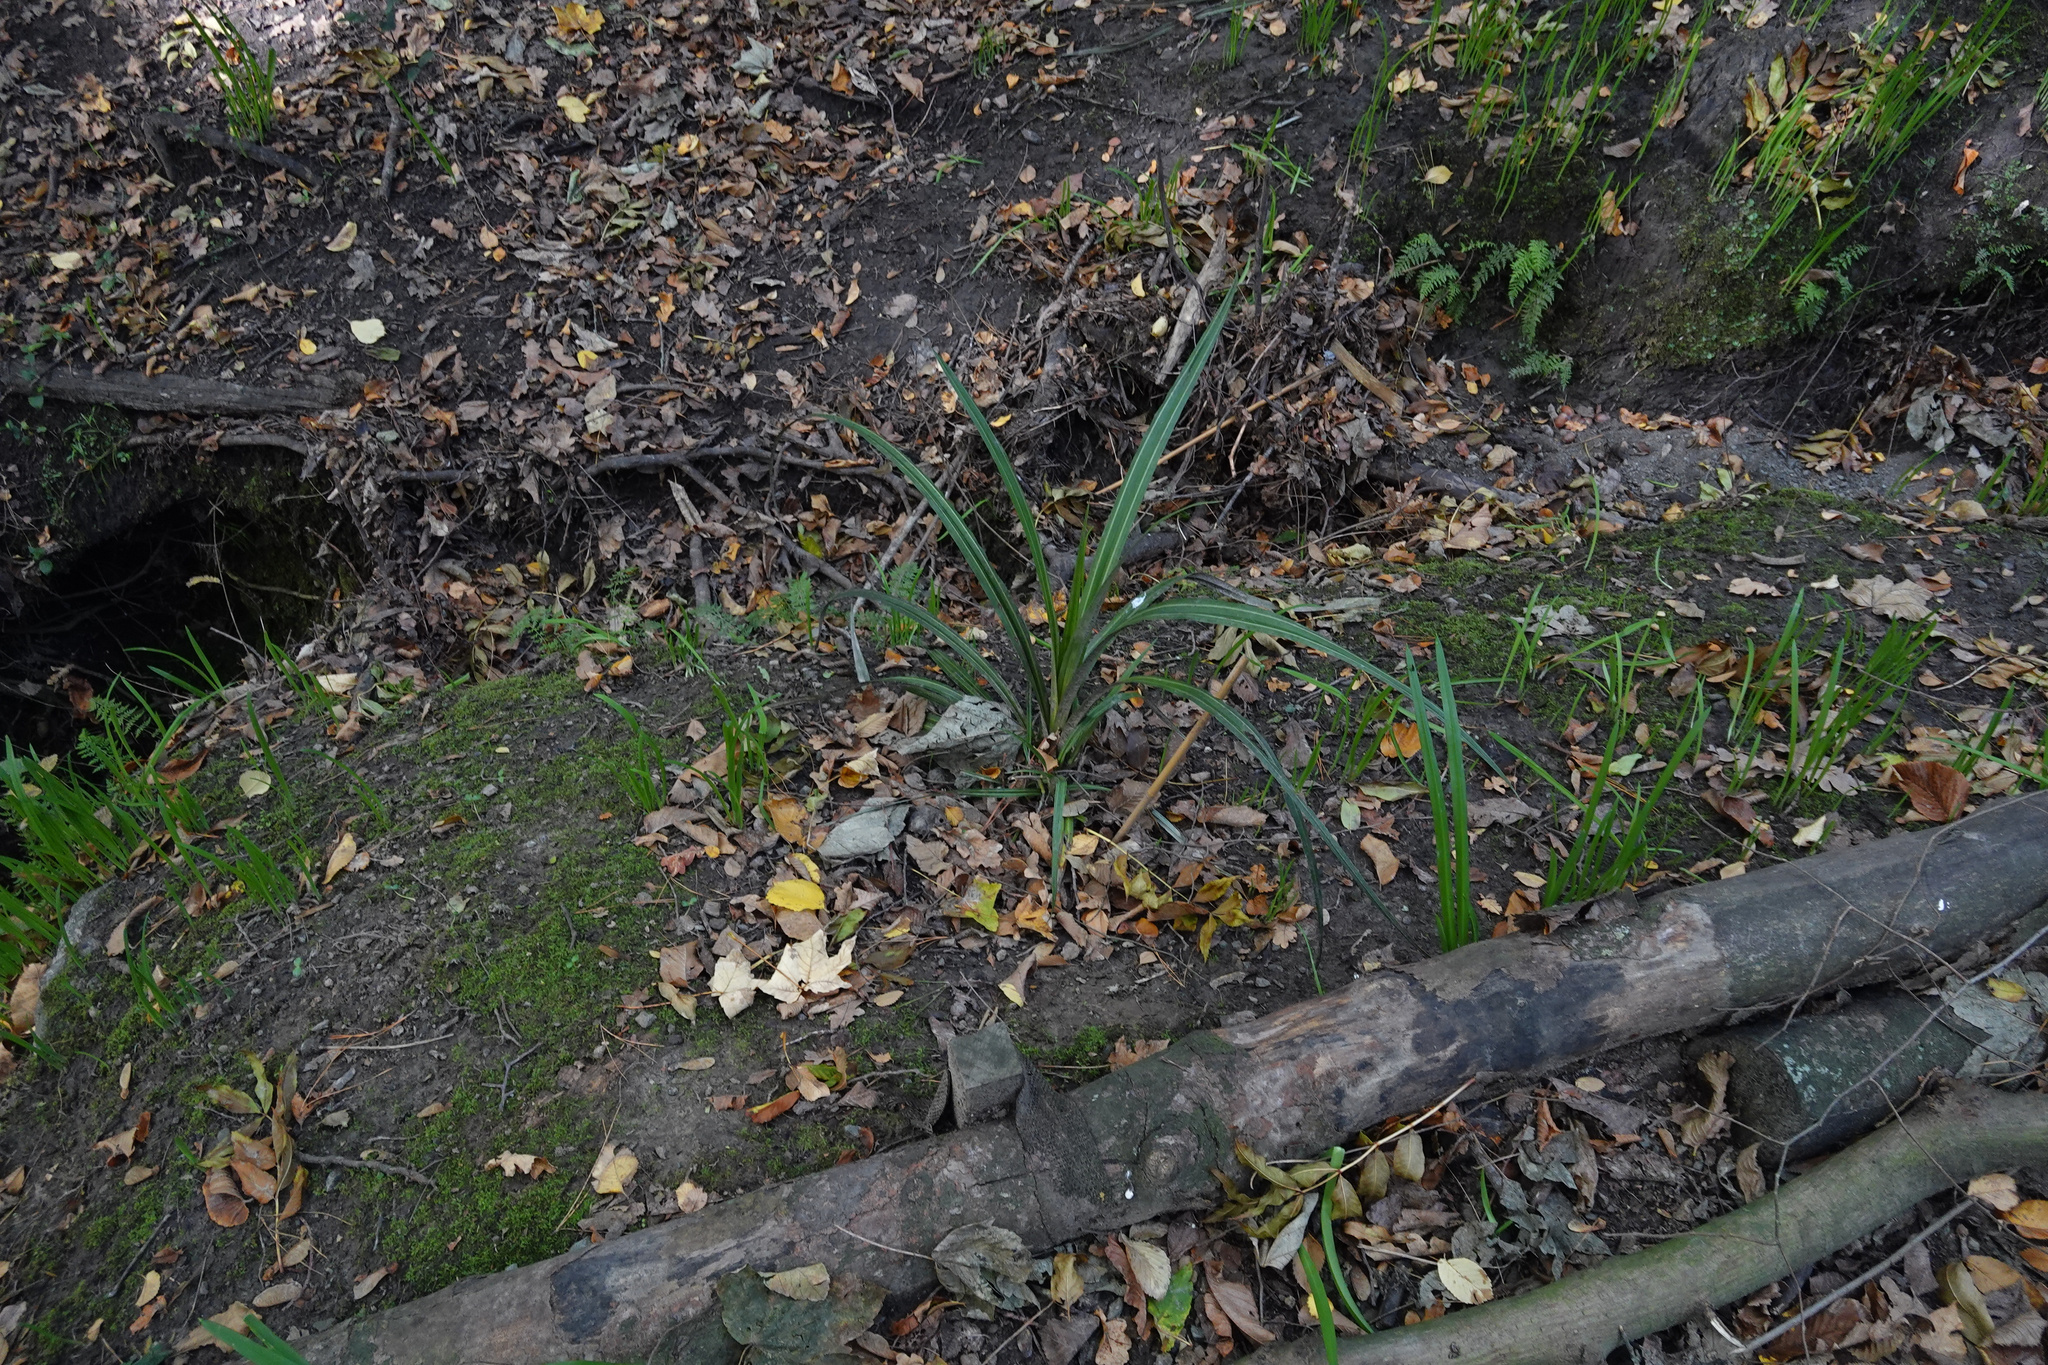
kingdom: Plantae
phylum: Tracheophyta
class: Liliopsida
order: Asparagales
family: Asparagaceae
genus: Cordyline
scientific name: Cordyline australis
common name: Cabbage-palm
